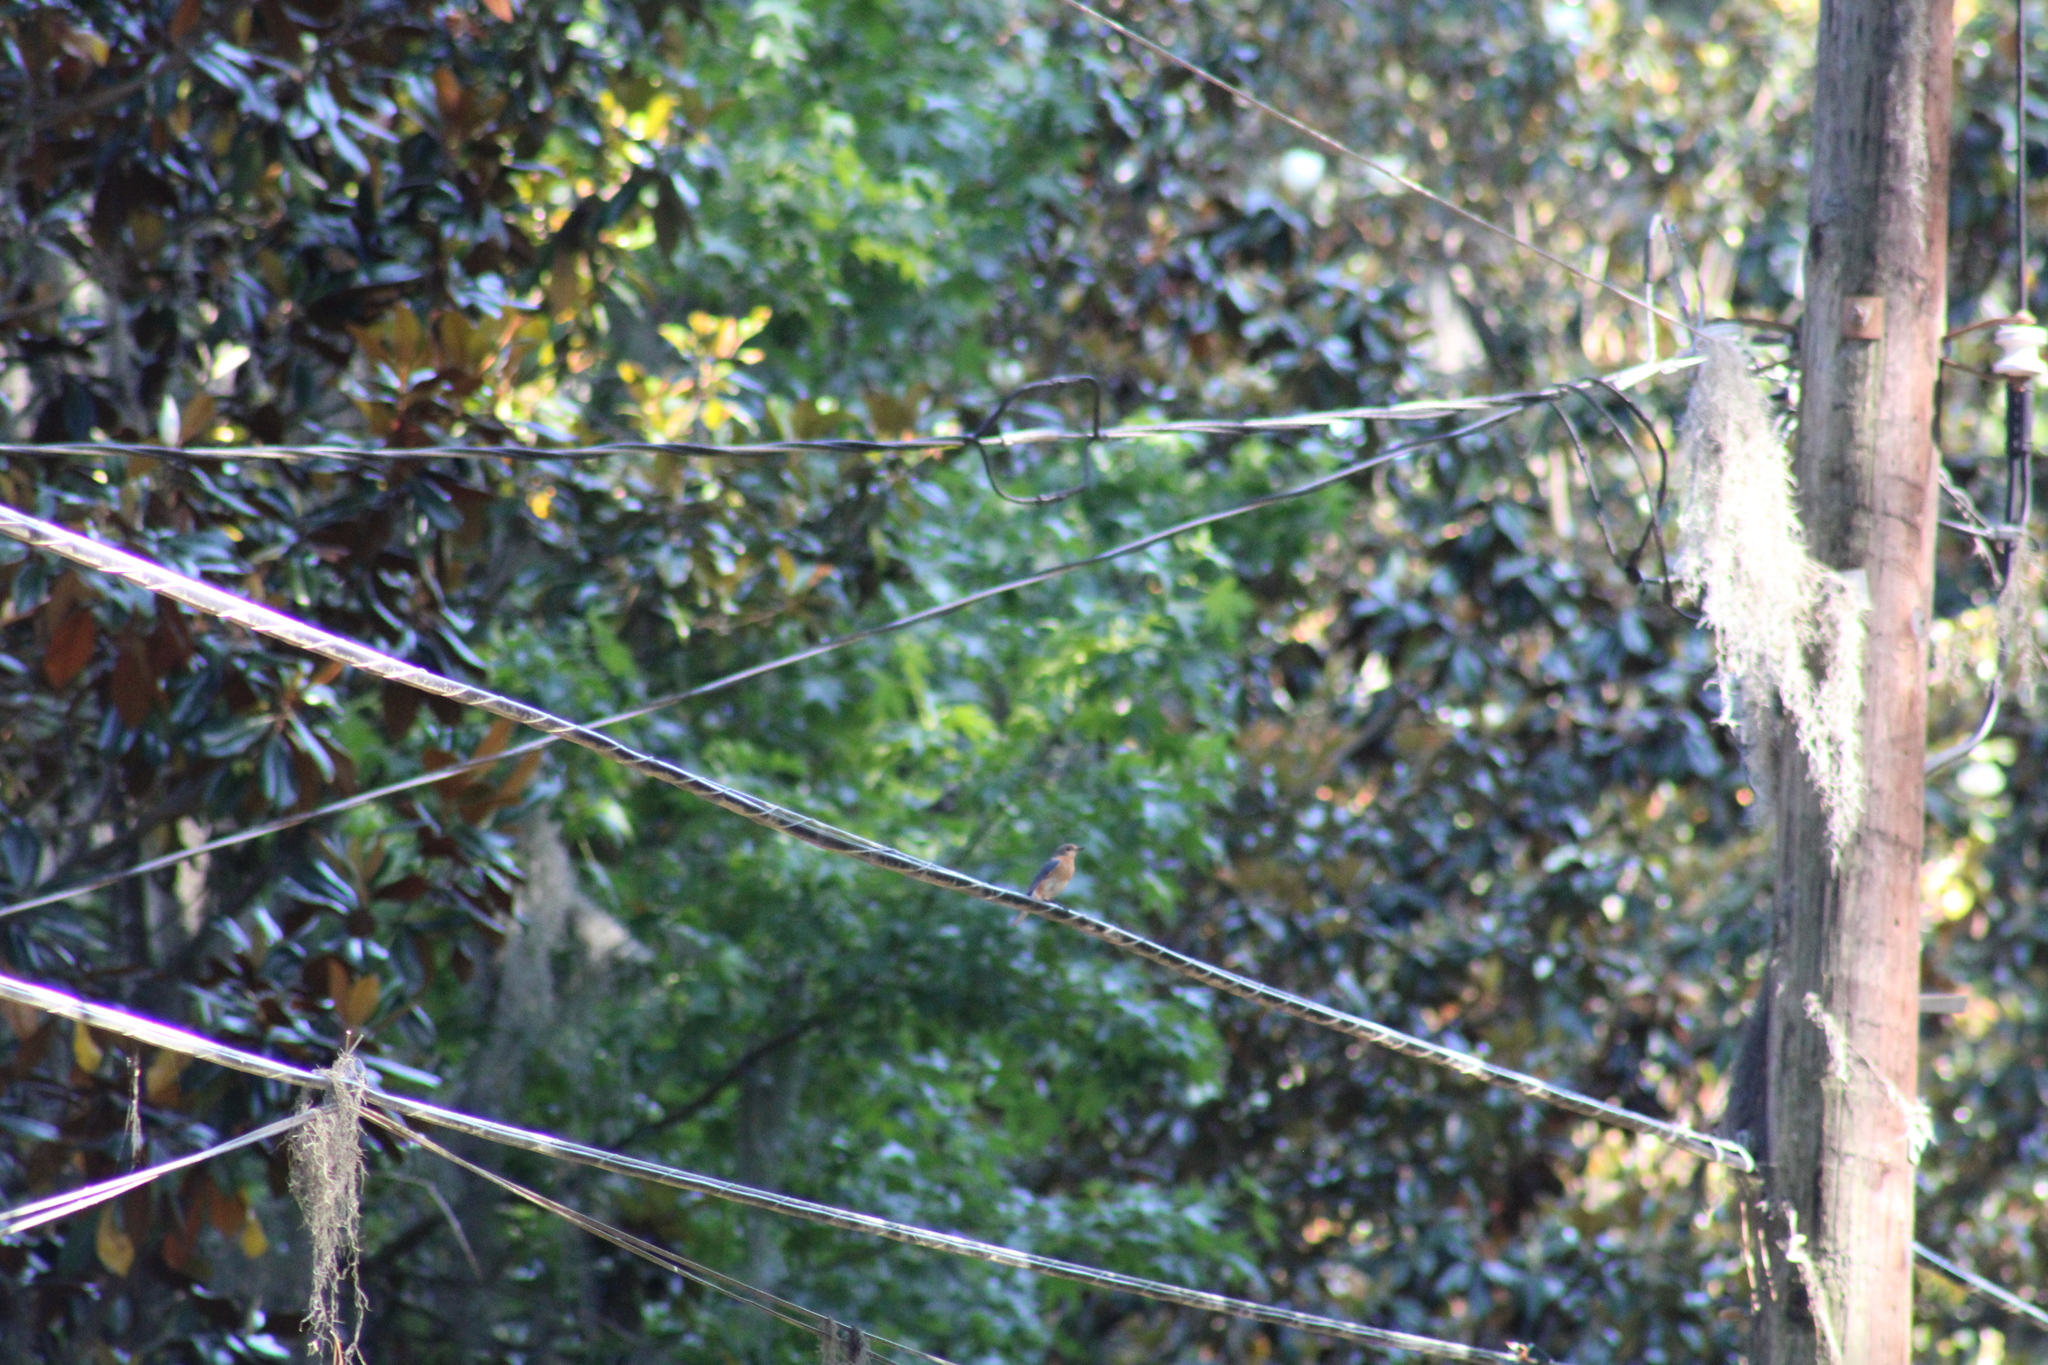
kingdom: Animalia
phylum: Chordata
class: Aves
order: Passeriformes
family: Turdidae
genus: Sialia
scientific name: Sialia sialis
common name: Eastern bluebird
